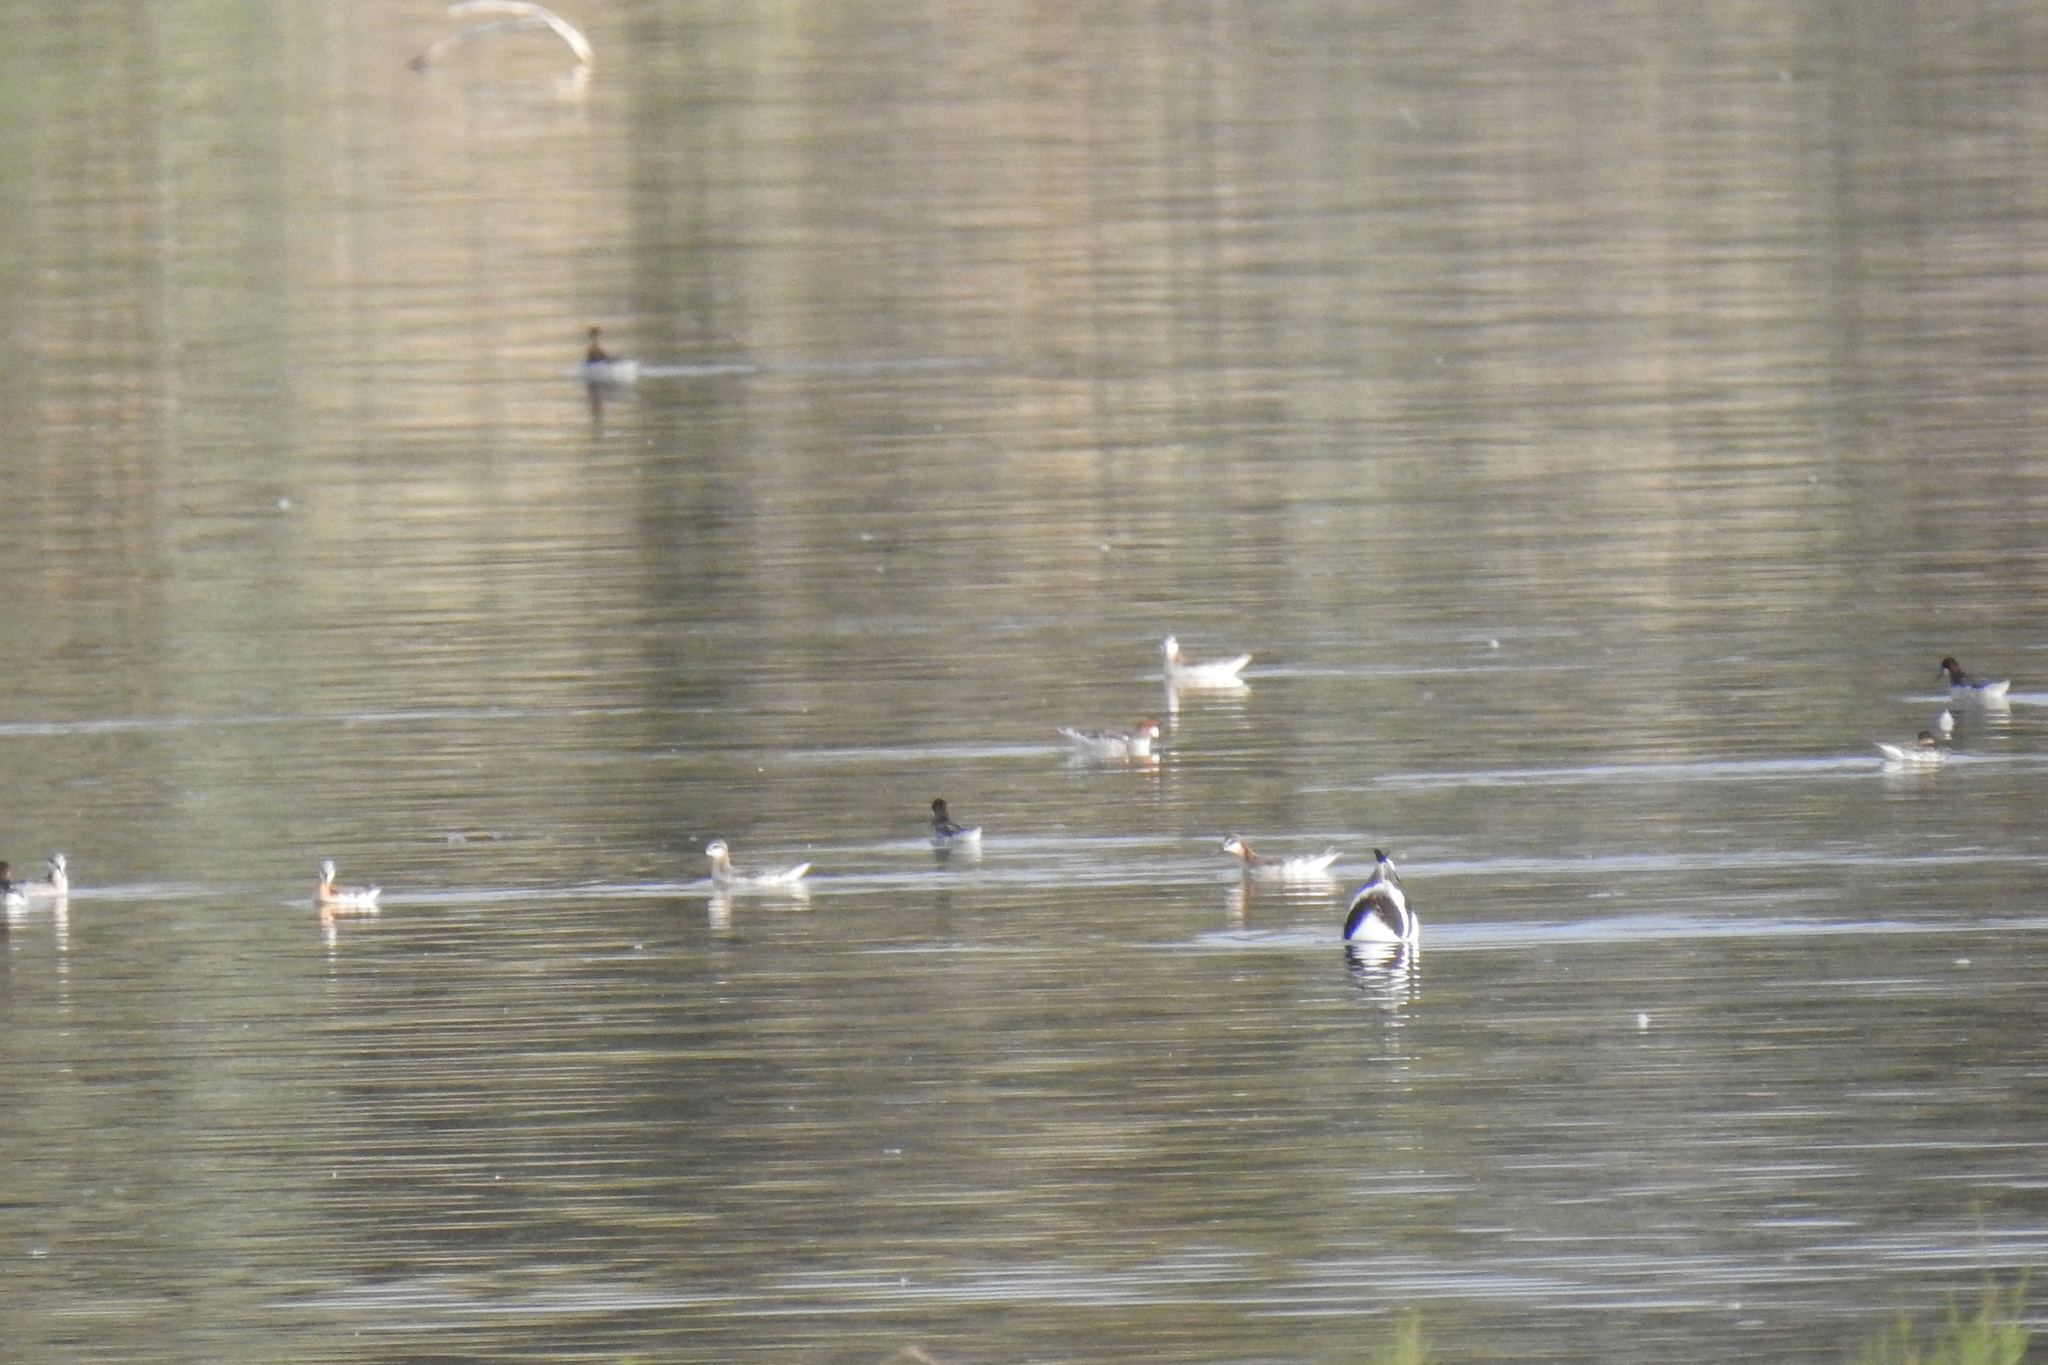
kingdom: Animalia
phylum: Chordata
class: Aves
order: Charadriiformes
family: Scolopacidae
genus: Phalaropus
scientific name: Phalaropus tricolor
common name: Wilson's phalarope
